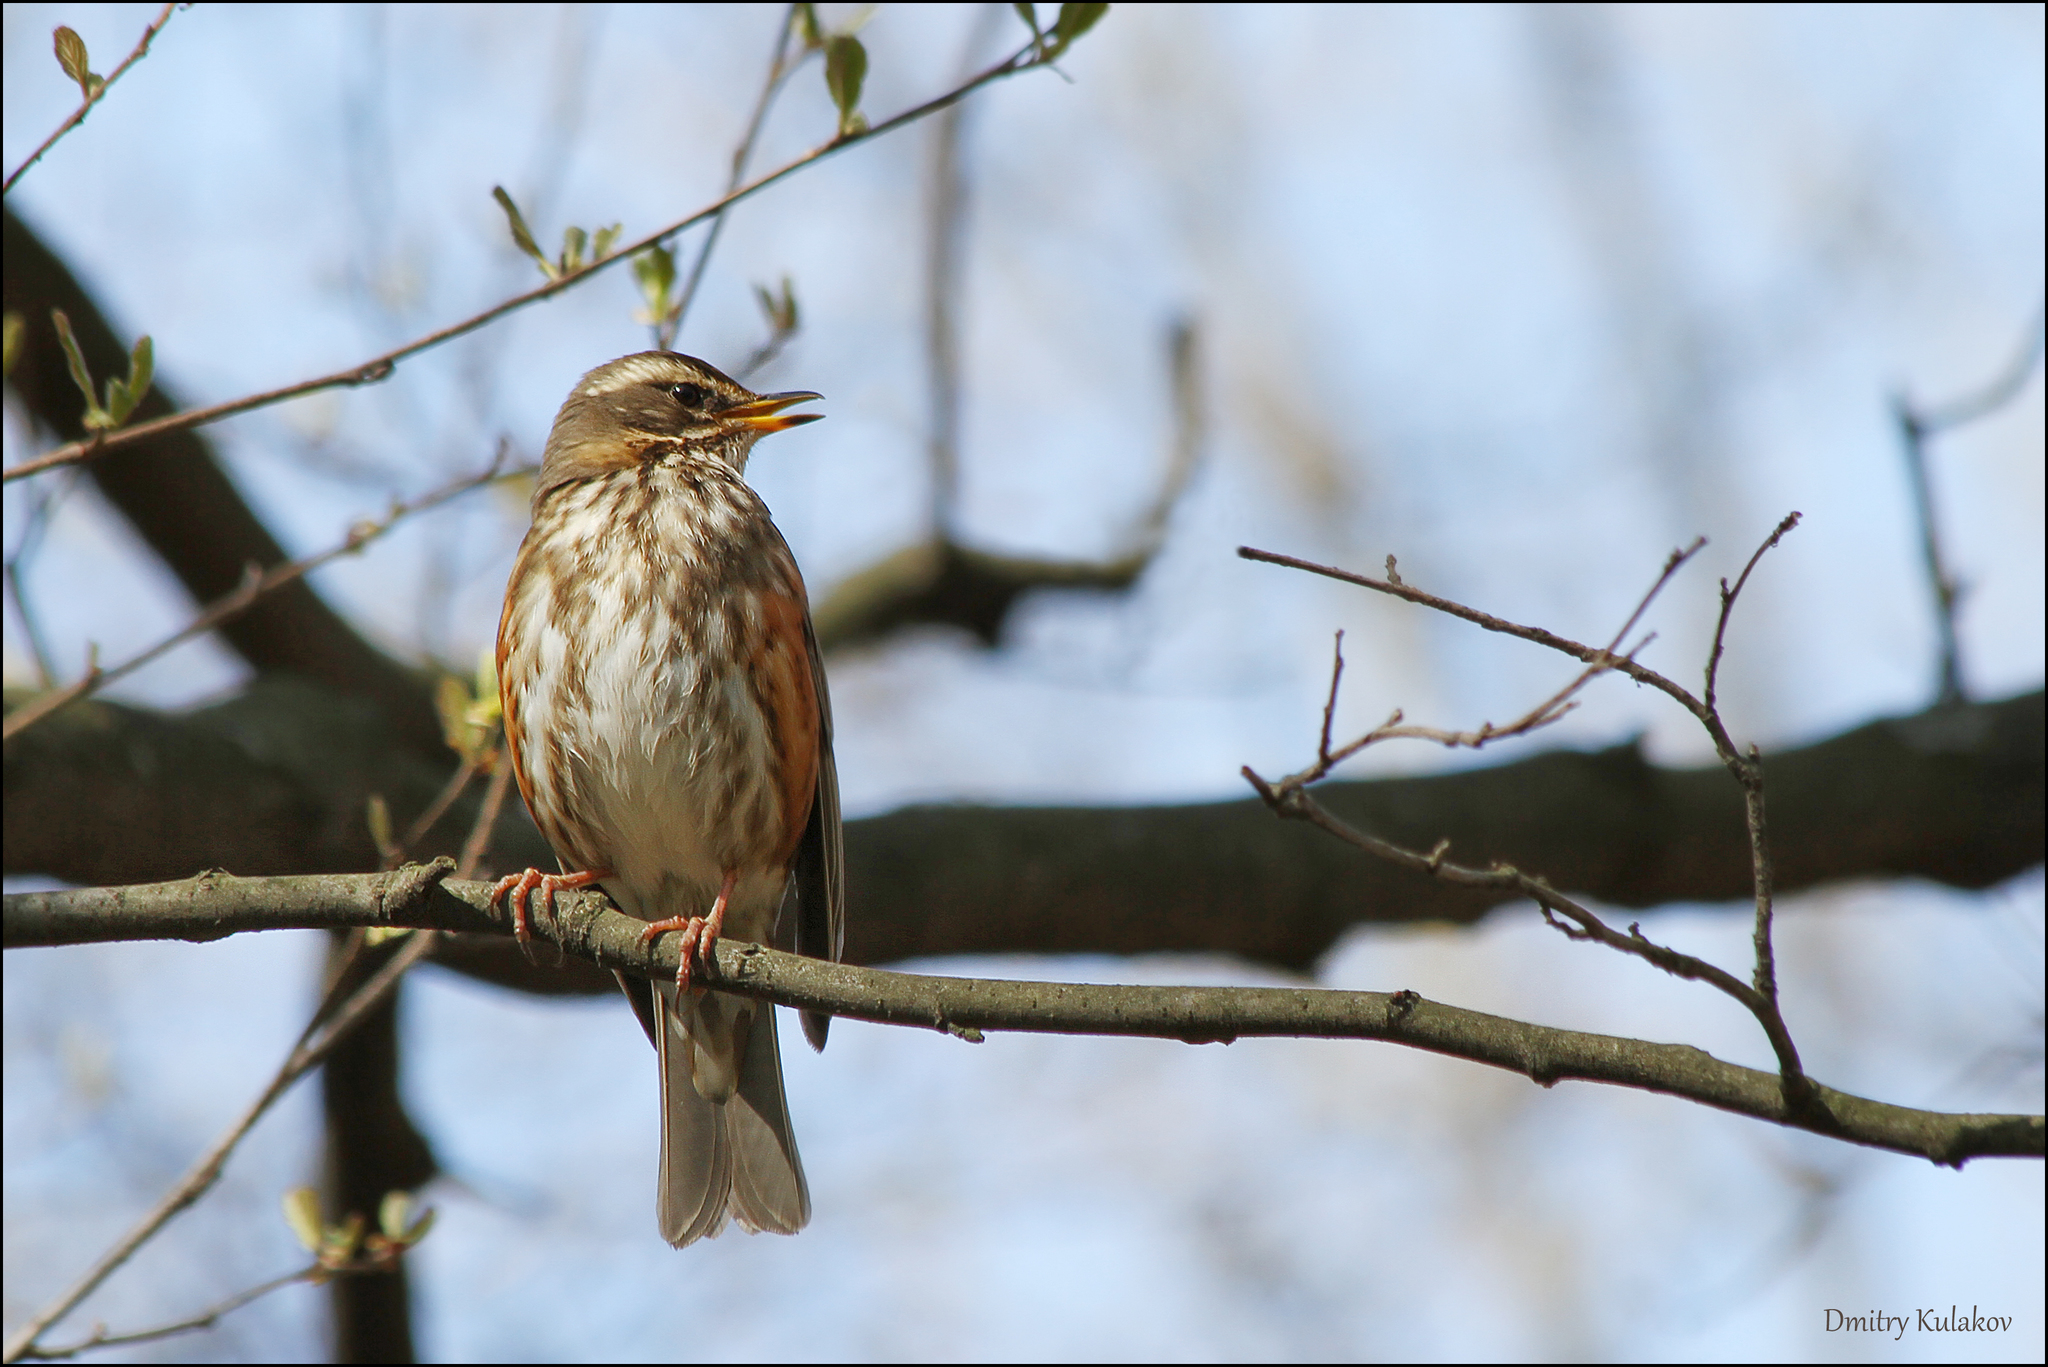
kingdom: Animalia
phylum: Chordata
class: Aves
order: Passeriformes
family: Turdidae
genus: Turdus
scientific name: Turdus iliacus
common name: Redwing
